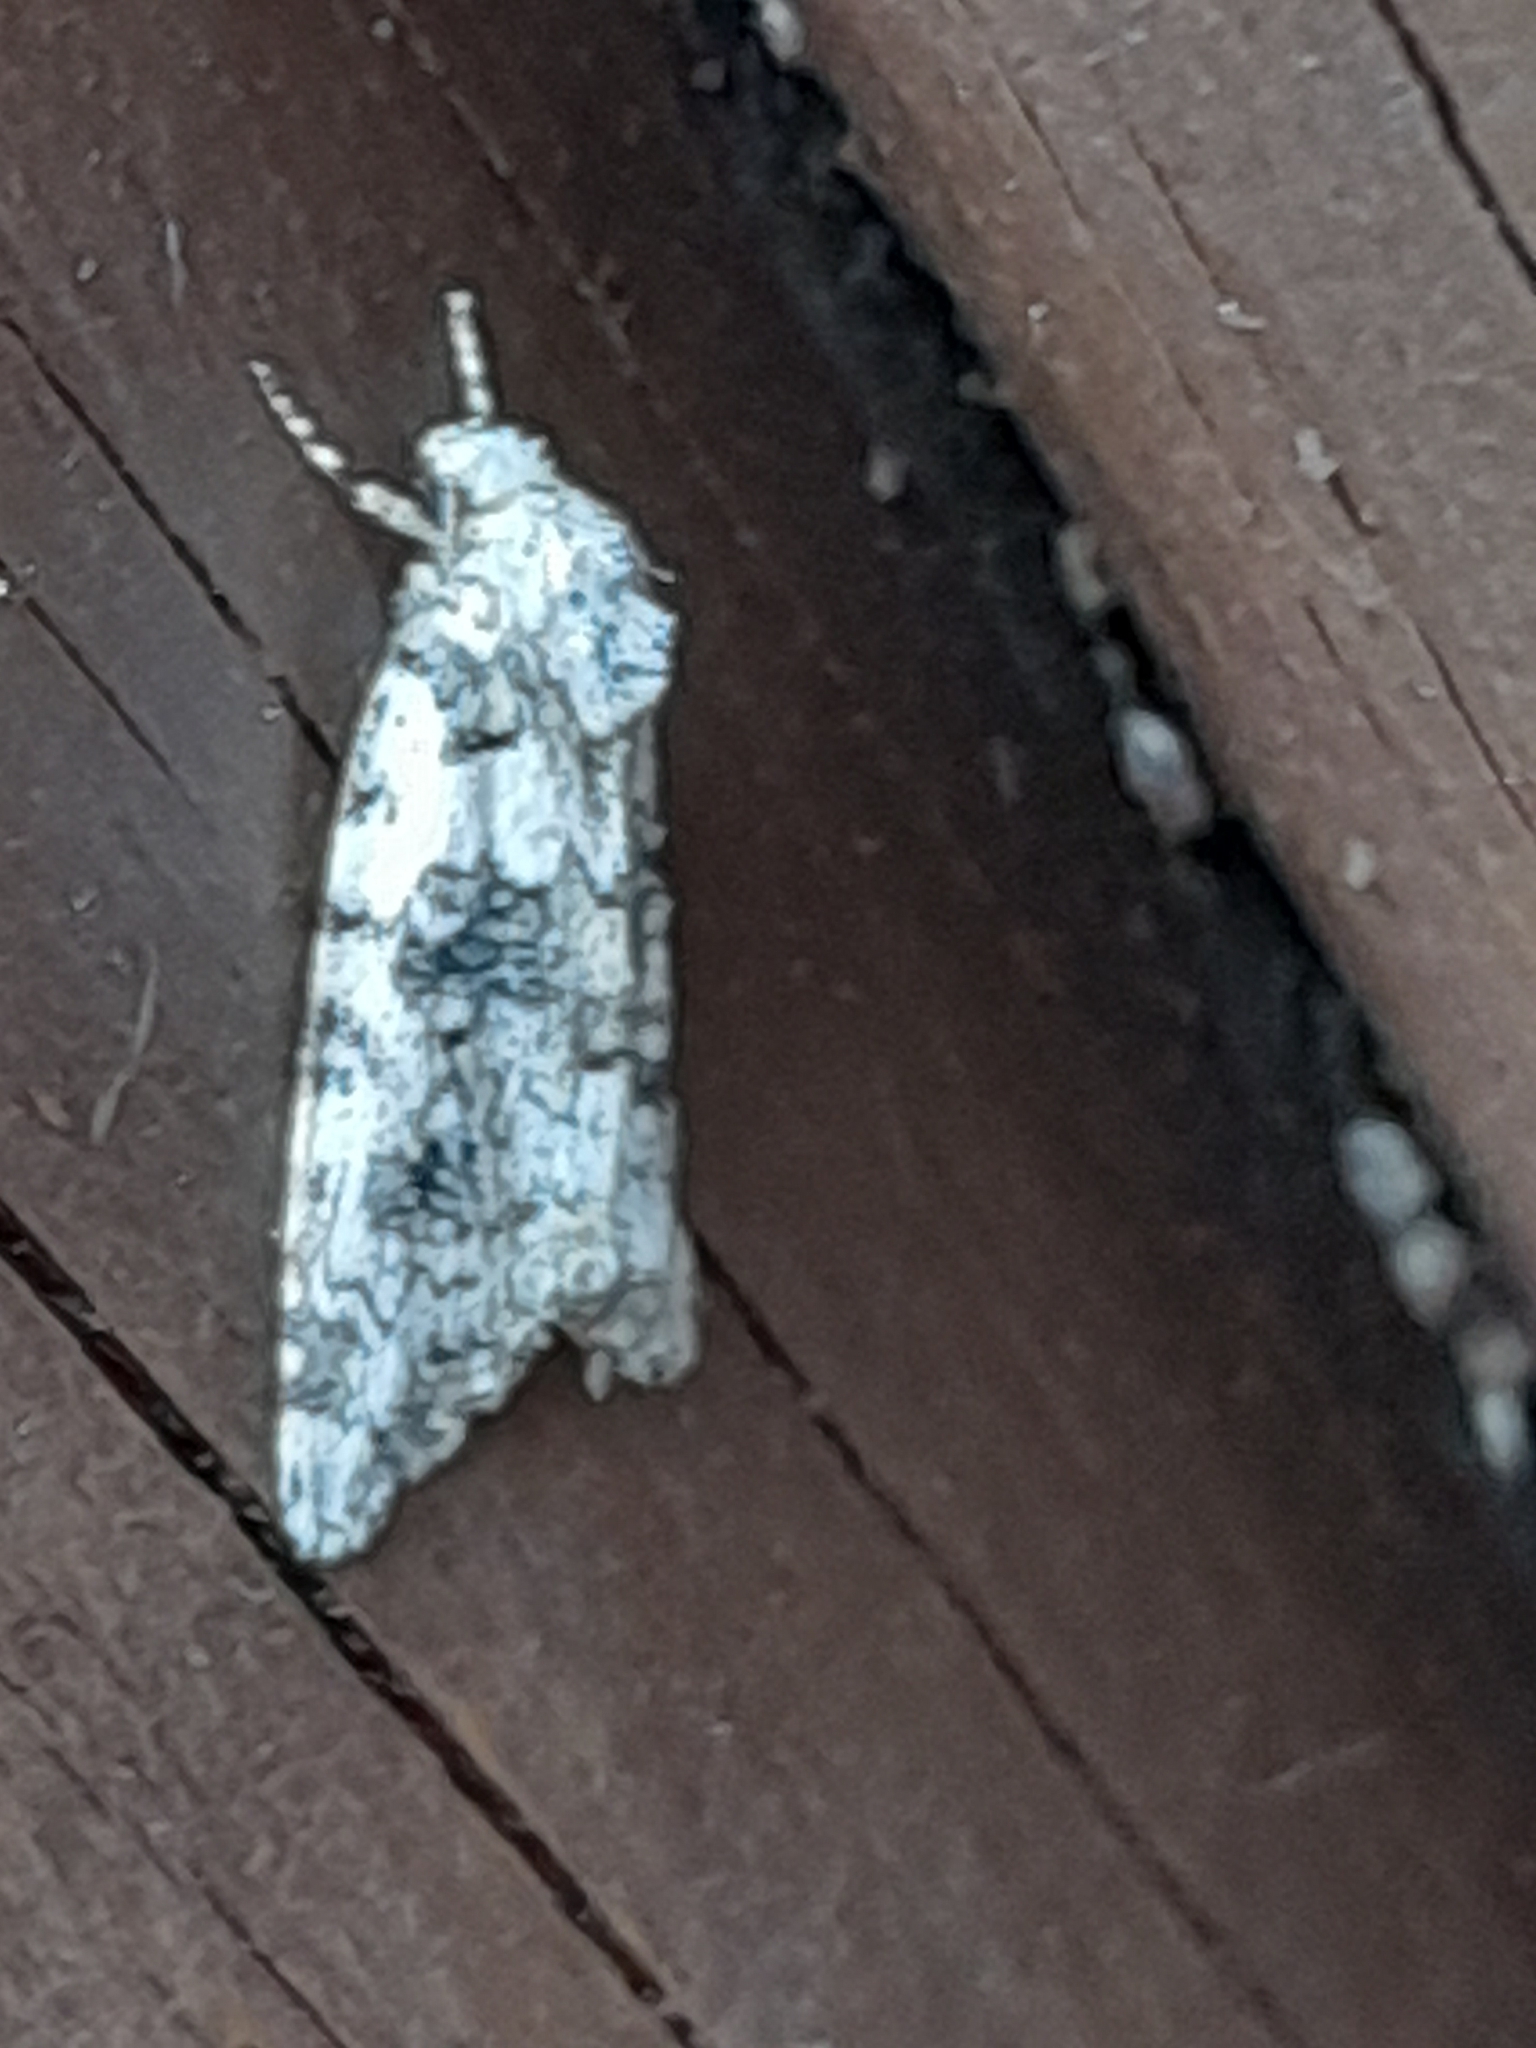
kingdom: Animalia
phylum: Arthropoda
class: Insecta
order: Lepidoptera
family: Noctuidae
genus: Bryophila
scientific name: Bryophila domestica
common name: Marbled beauty
